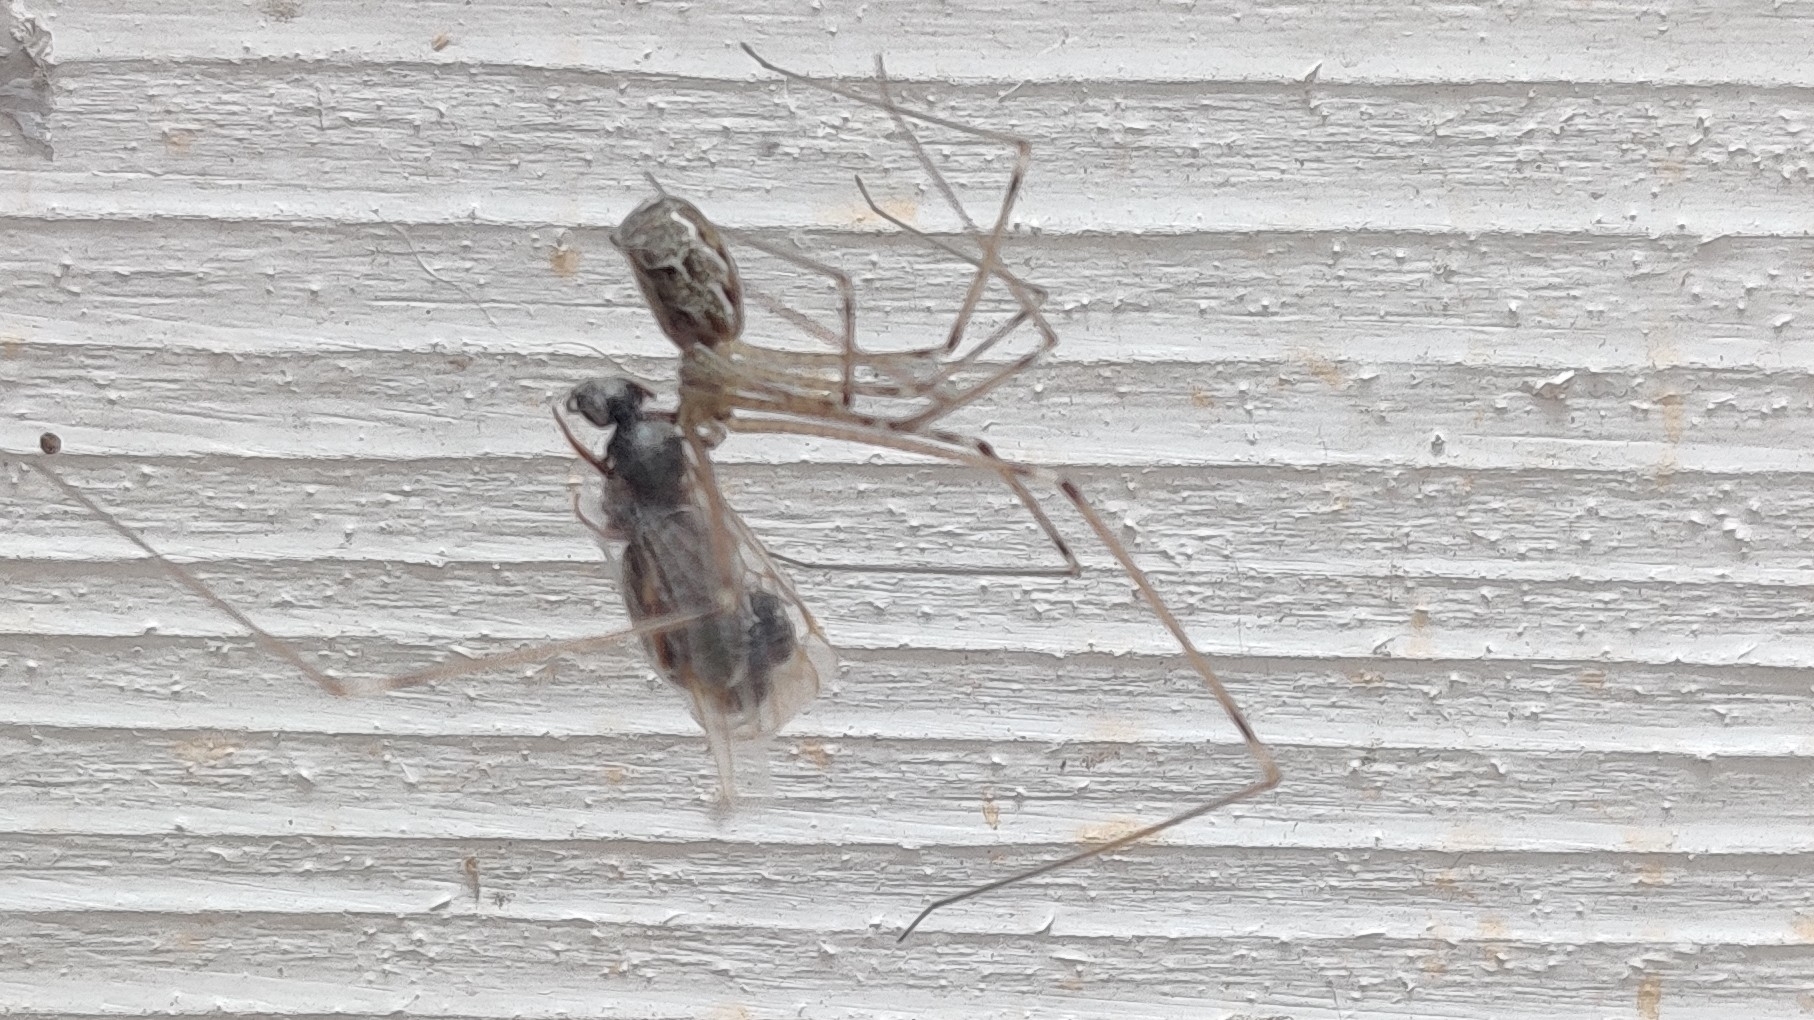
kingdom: Animalia
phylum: Arthropoda
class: Arachnida
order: Araneae
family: Pholcidae
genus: Holocnemus
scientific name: Holocnemus pluchei
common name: Marbled cellar spider
